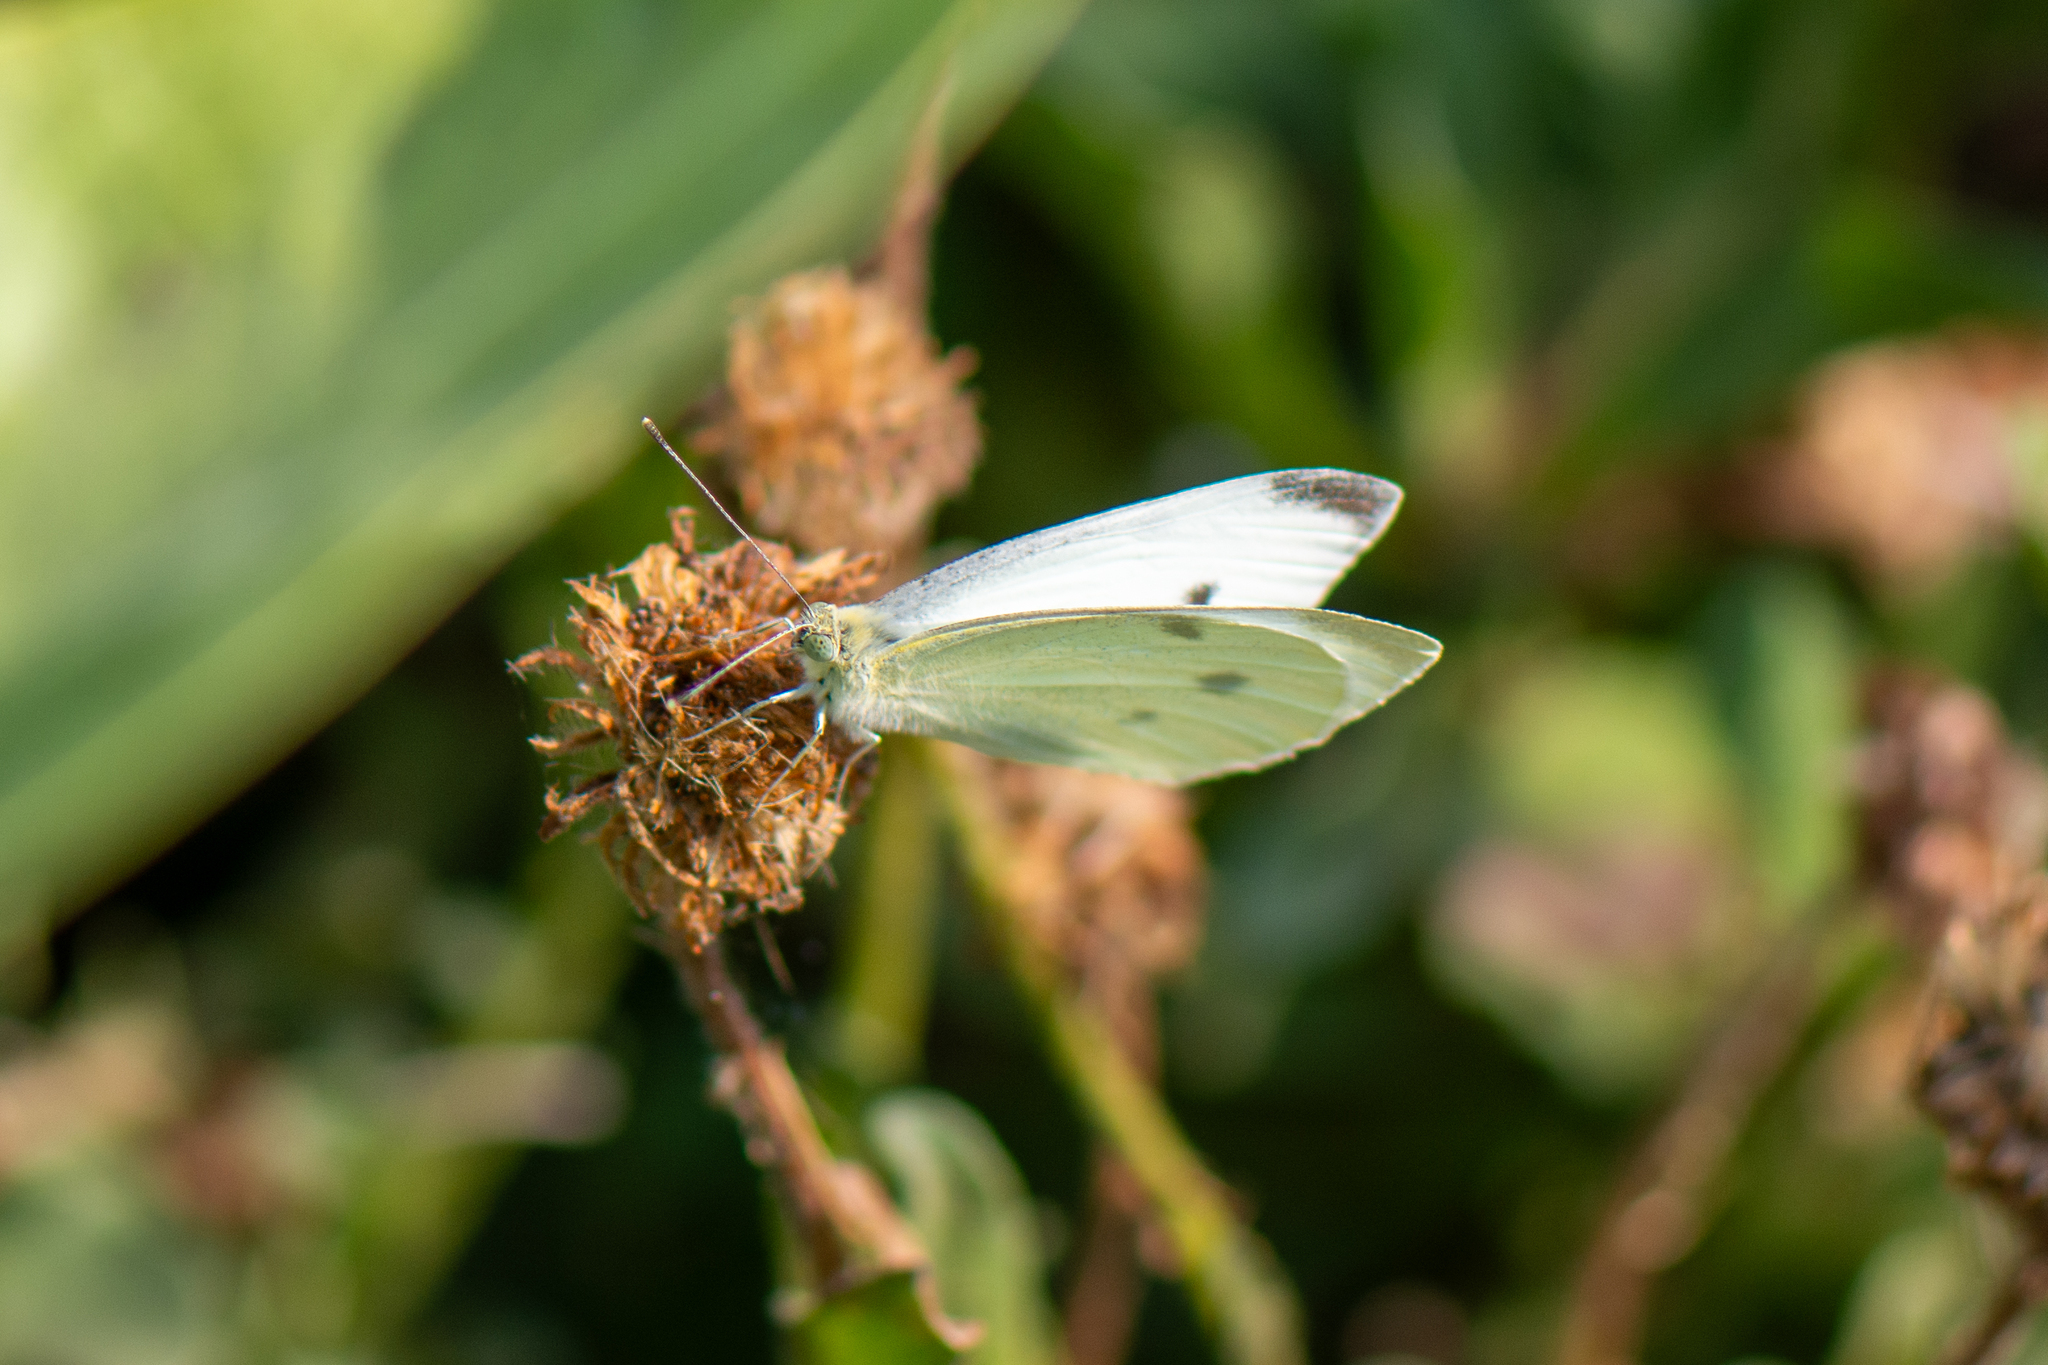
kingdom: Animalia
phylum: Arthropoda
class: Insecta
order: Lepidoptera
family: Pieridae
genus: Pieris
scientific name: Pieris rapae
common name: Small white
